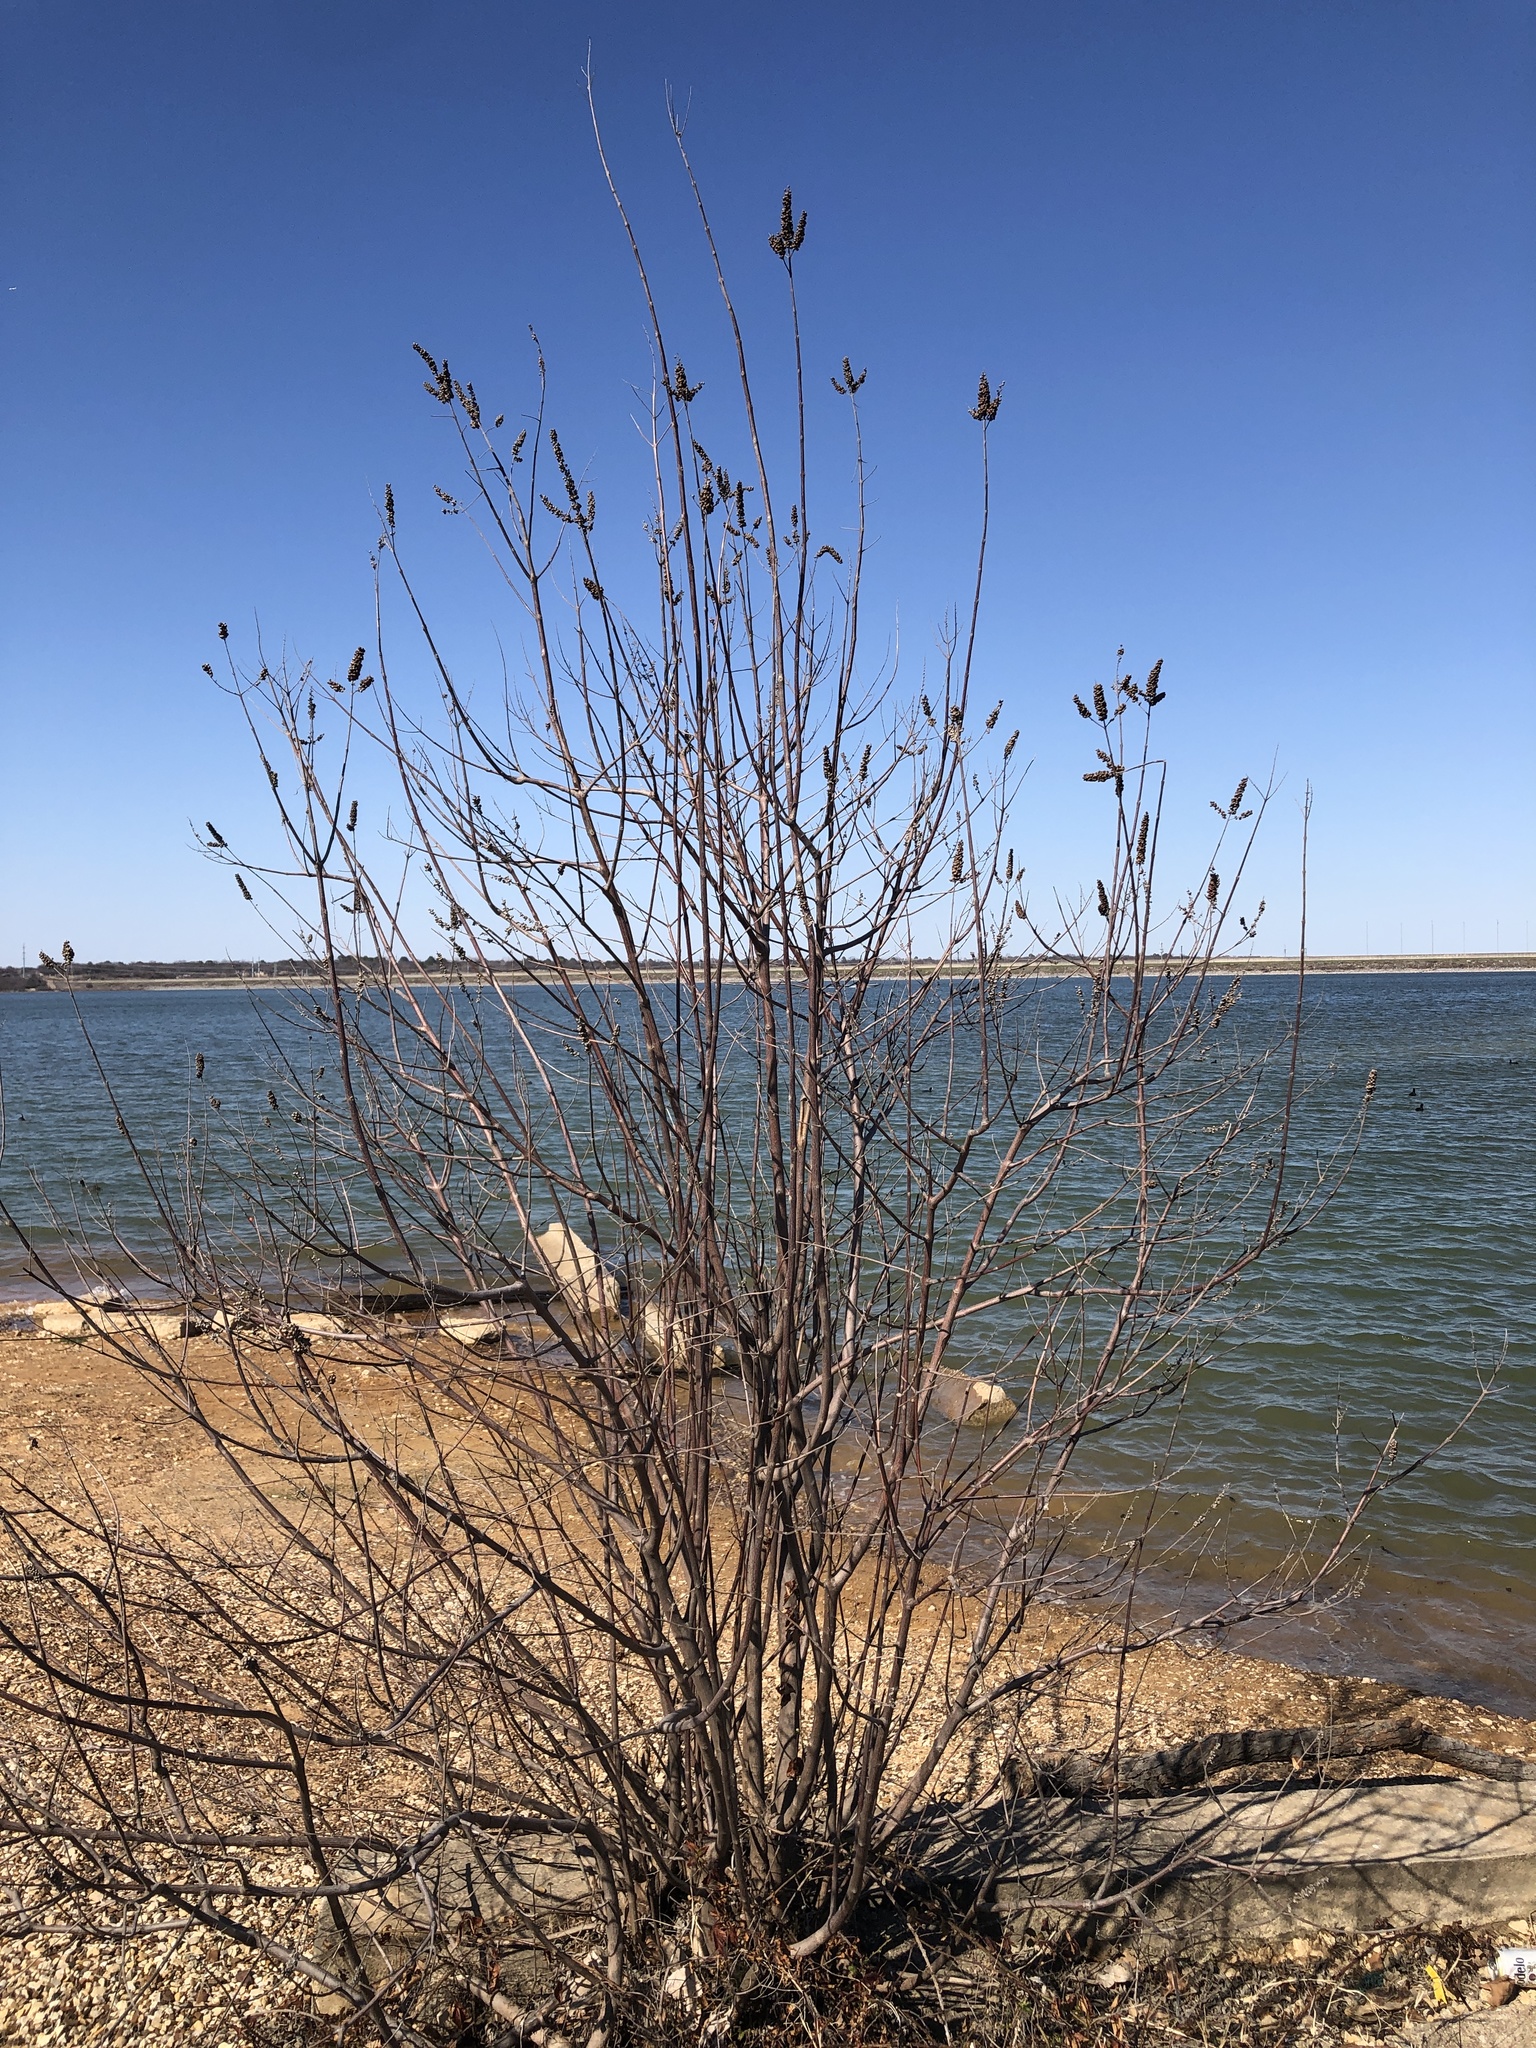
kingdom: Plantae
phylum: Tracheophyta
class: Magnoliopsida
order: Lamiales
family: Lamiaceae
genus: Vitex
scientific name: Vitex agnus-castus
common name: Chasteberry
